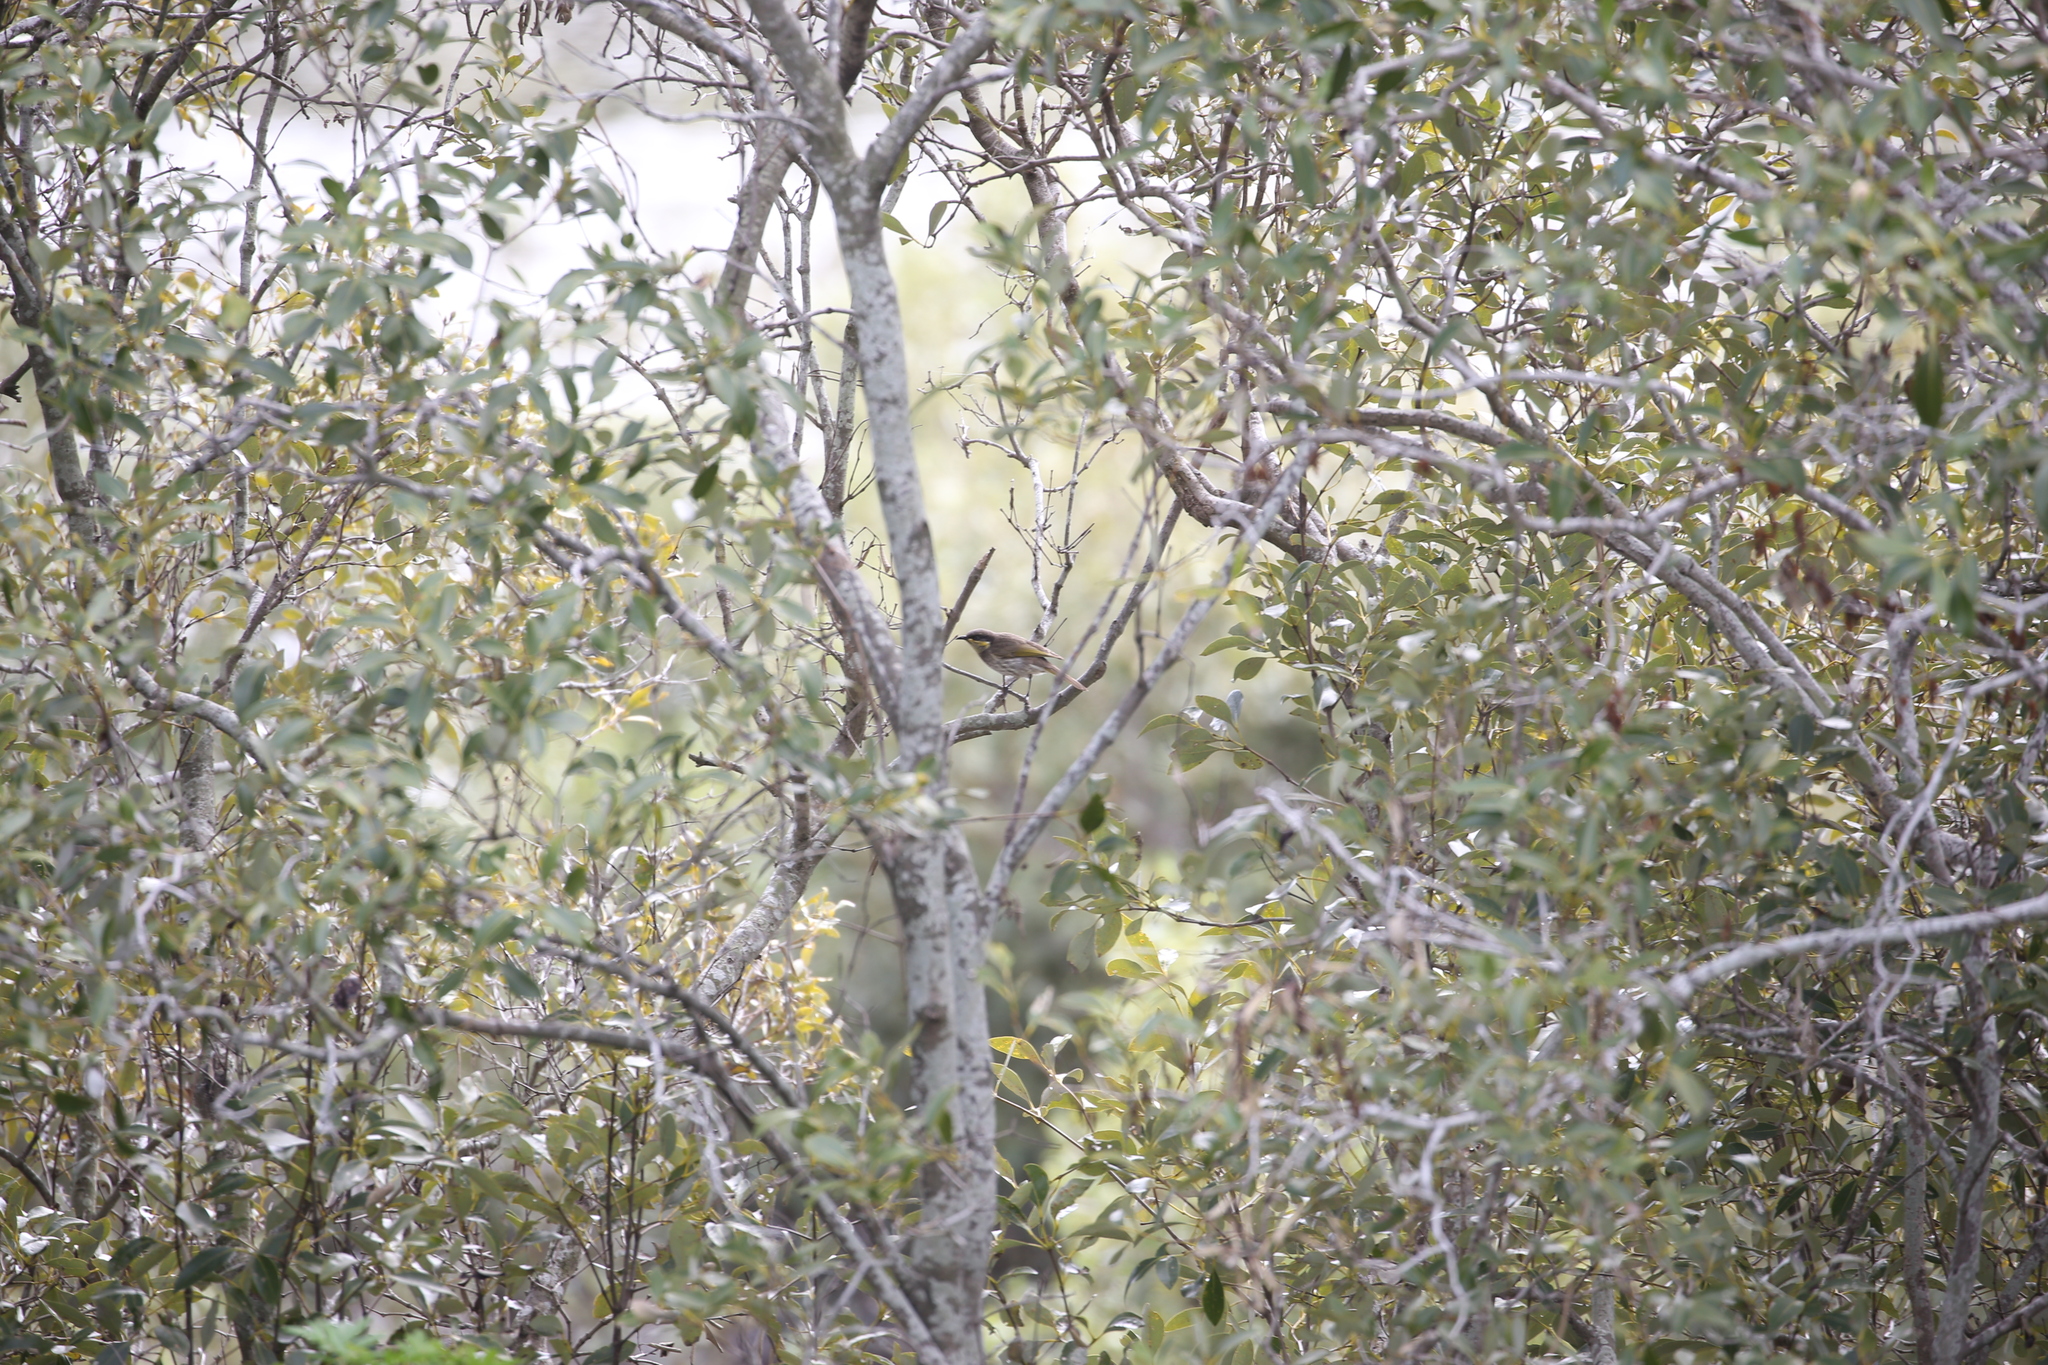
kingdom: Animalia
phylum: Chordata
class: Aves
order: Passeriformes
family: Meliphagidae
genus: Gavicalis
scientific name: Gavicalis fasciogularis
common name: Mangrove honeyeater
